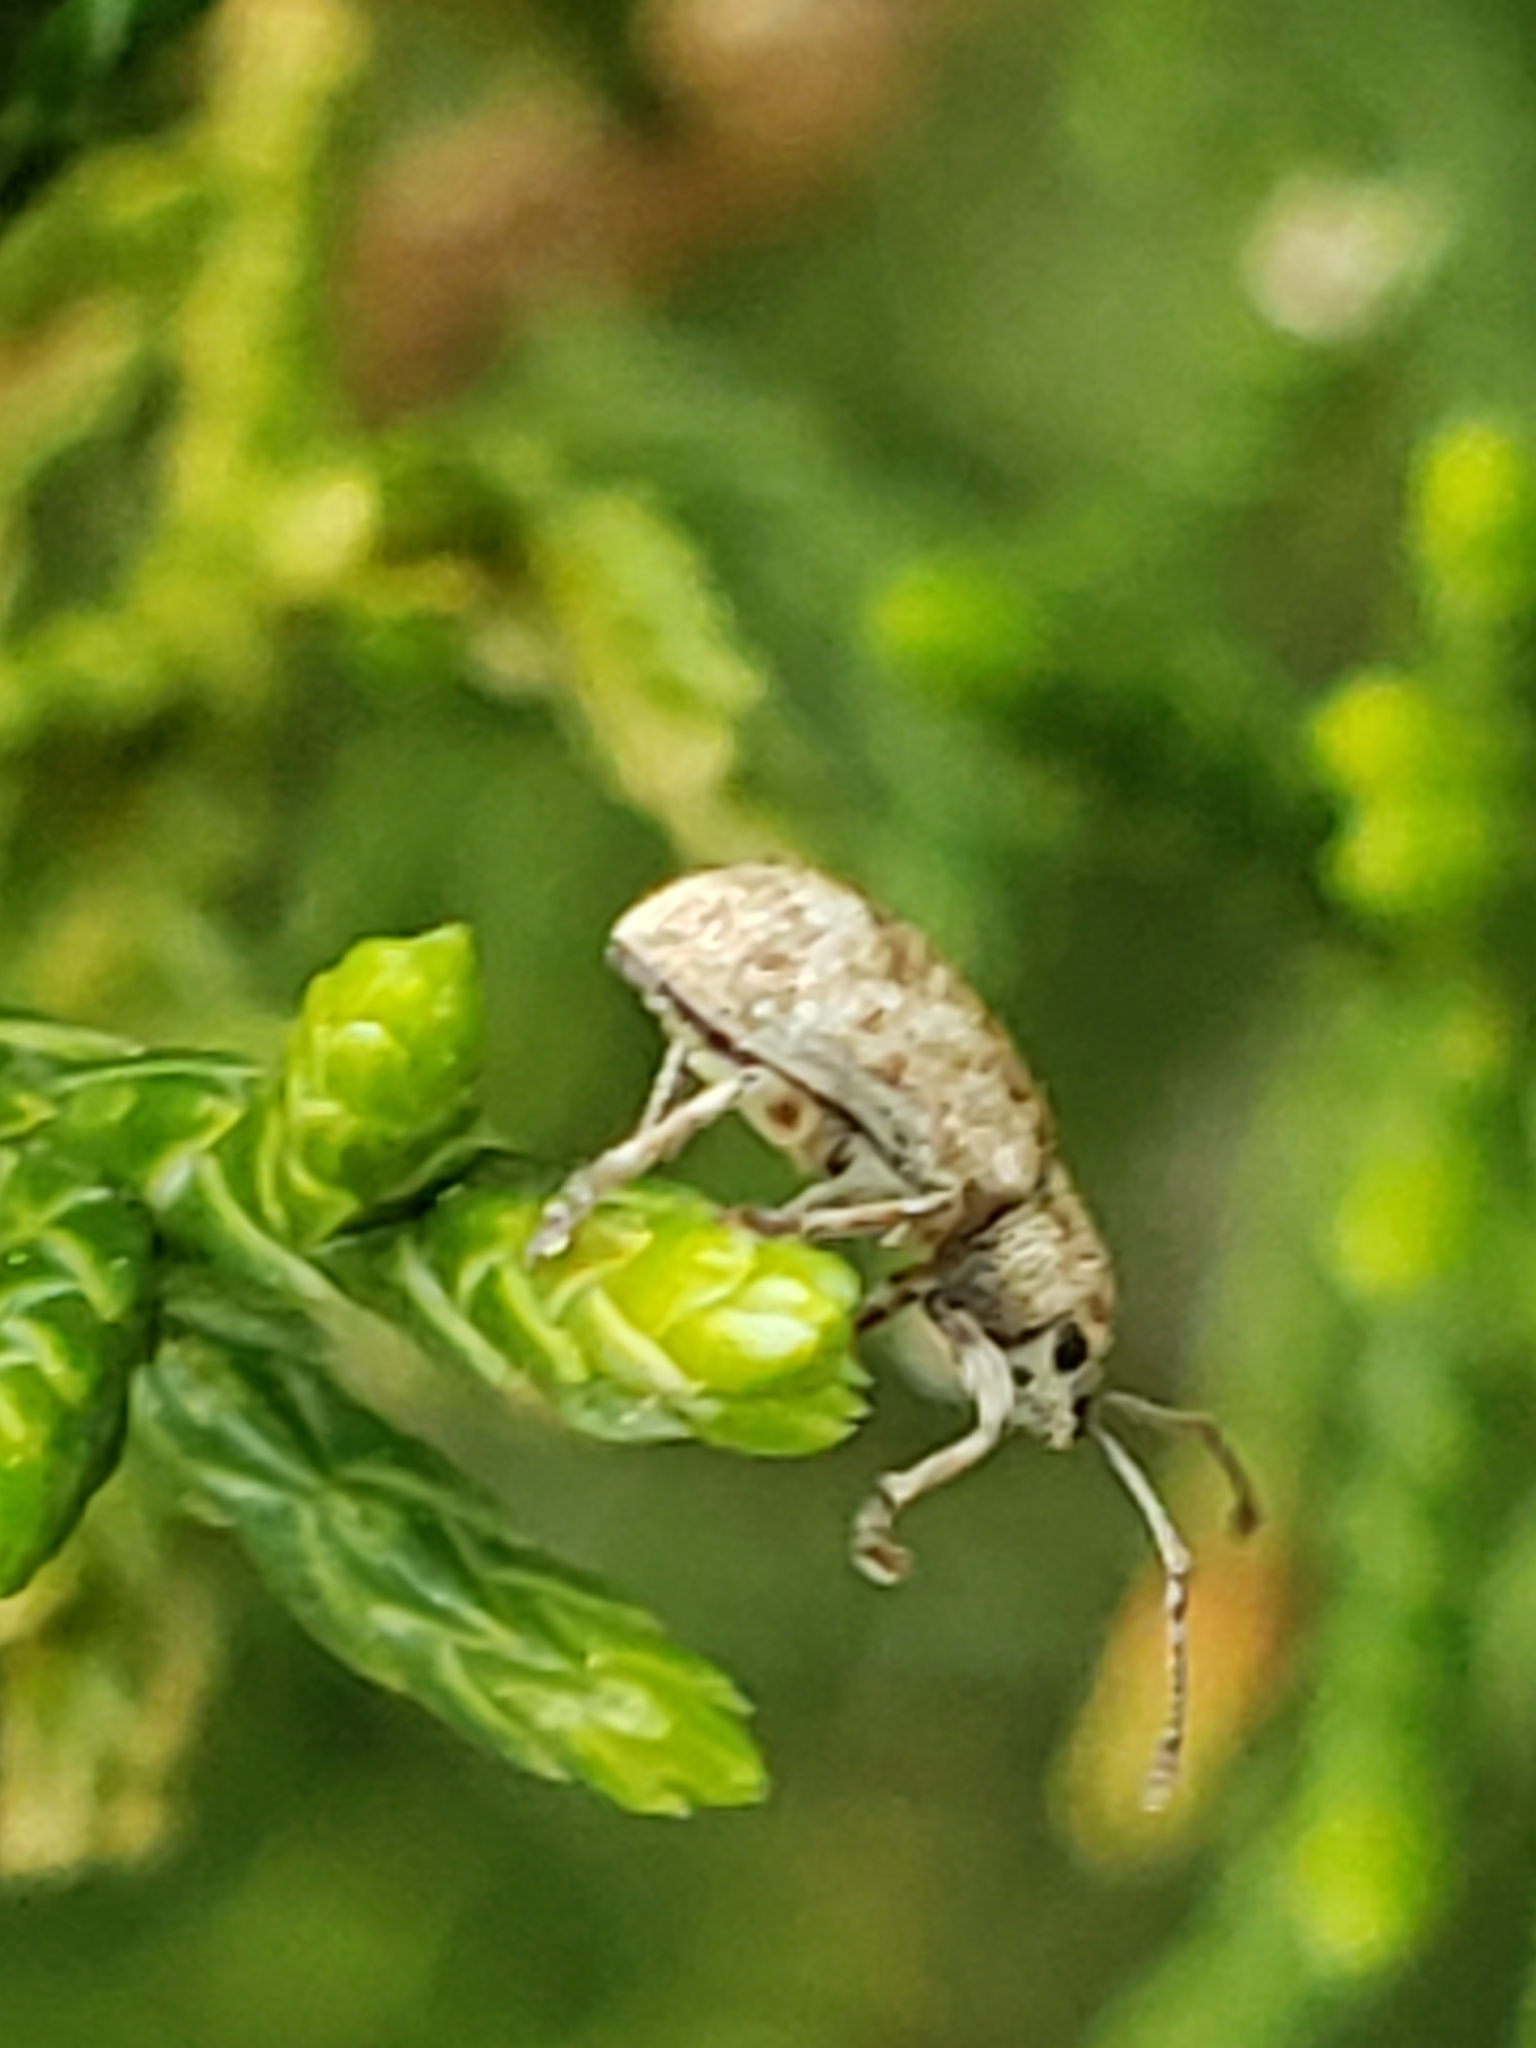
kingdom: Animalia
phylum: Arthropoda
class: Insecta
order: Coleoptera
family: Curculionidae
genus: Pseudoedophrys
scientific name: Pseudoedophrys hilleri
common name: Weevil
